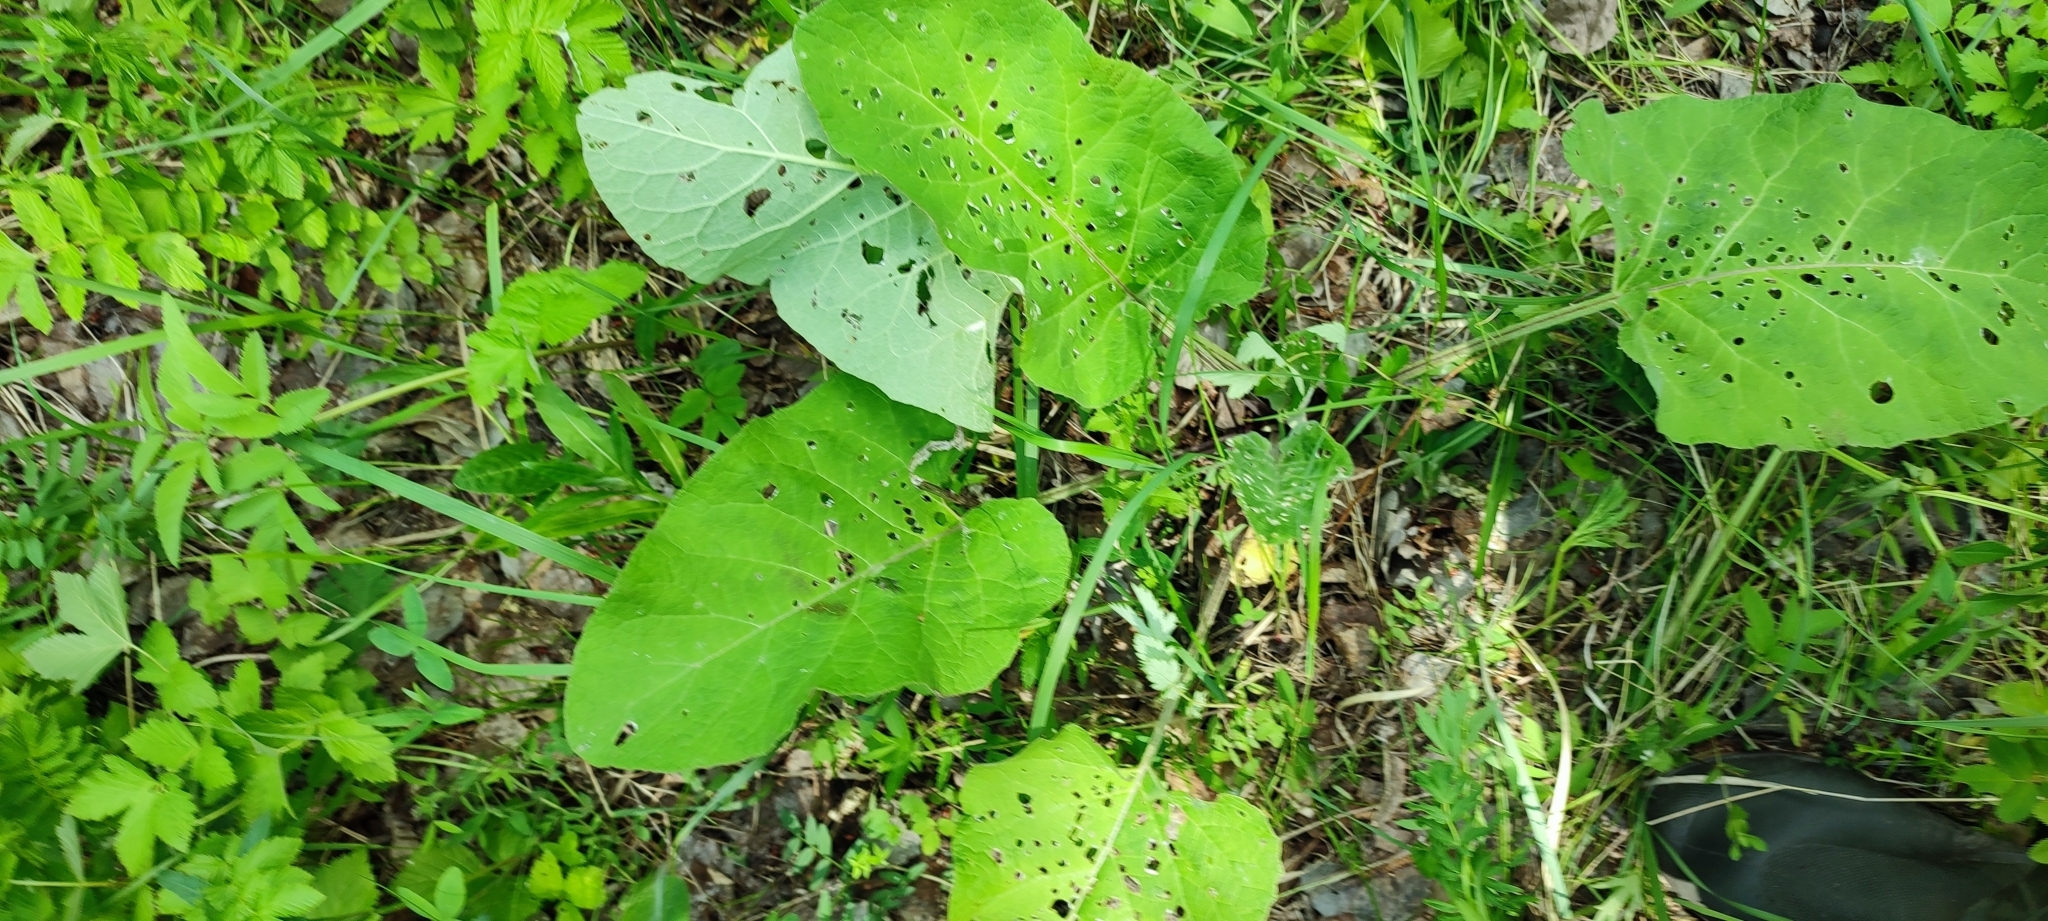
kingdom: Plantae
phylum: Tracheophyta
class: Magnoliopsida
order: Asterales
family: Asteraceae
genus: Arctium
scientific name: Arctium tomentosum
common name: Woolly burdock
